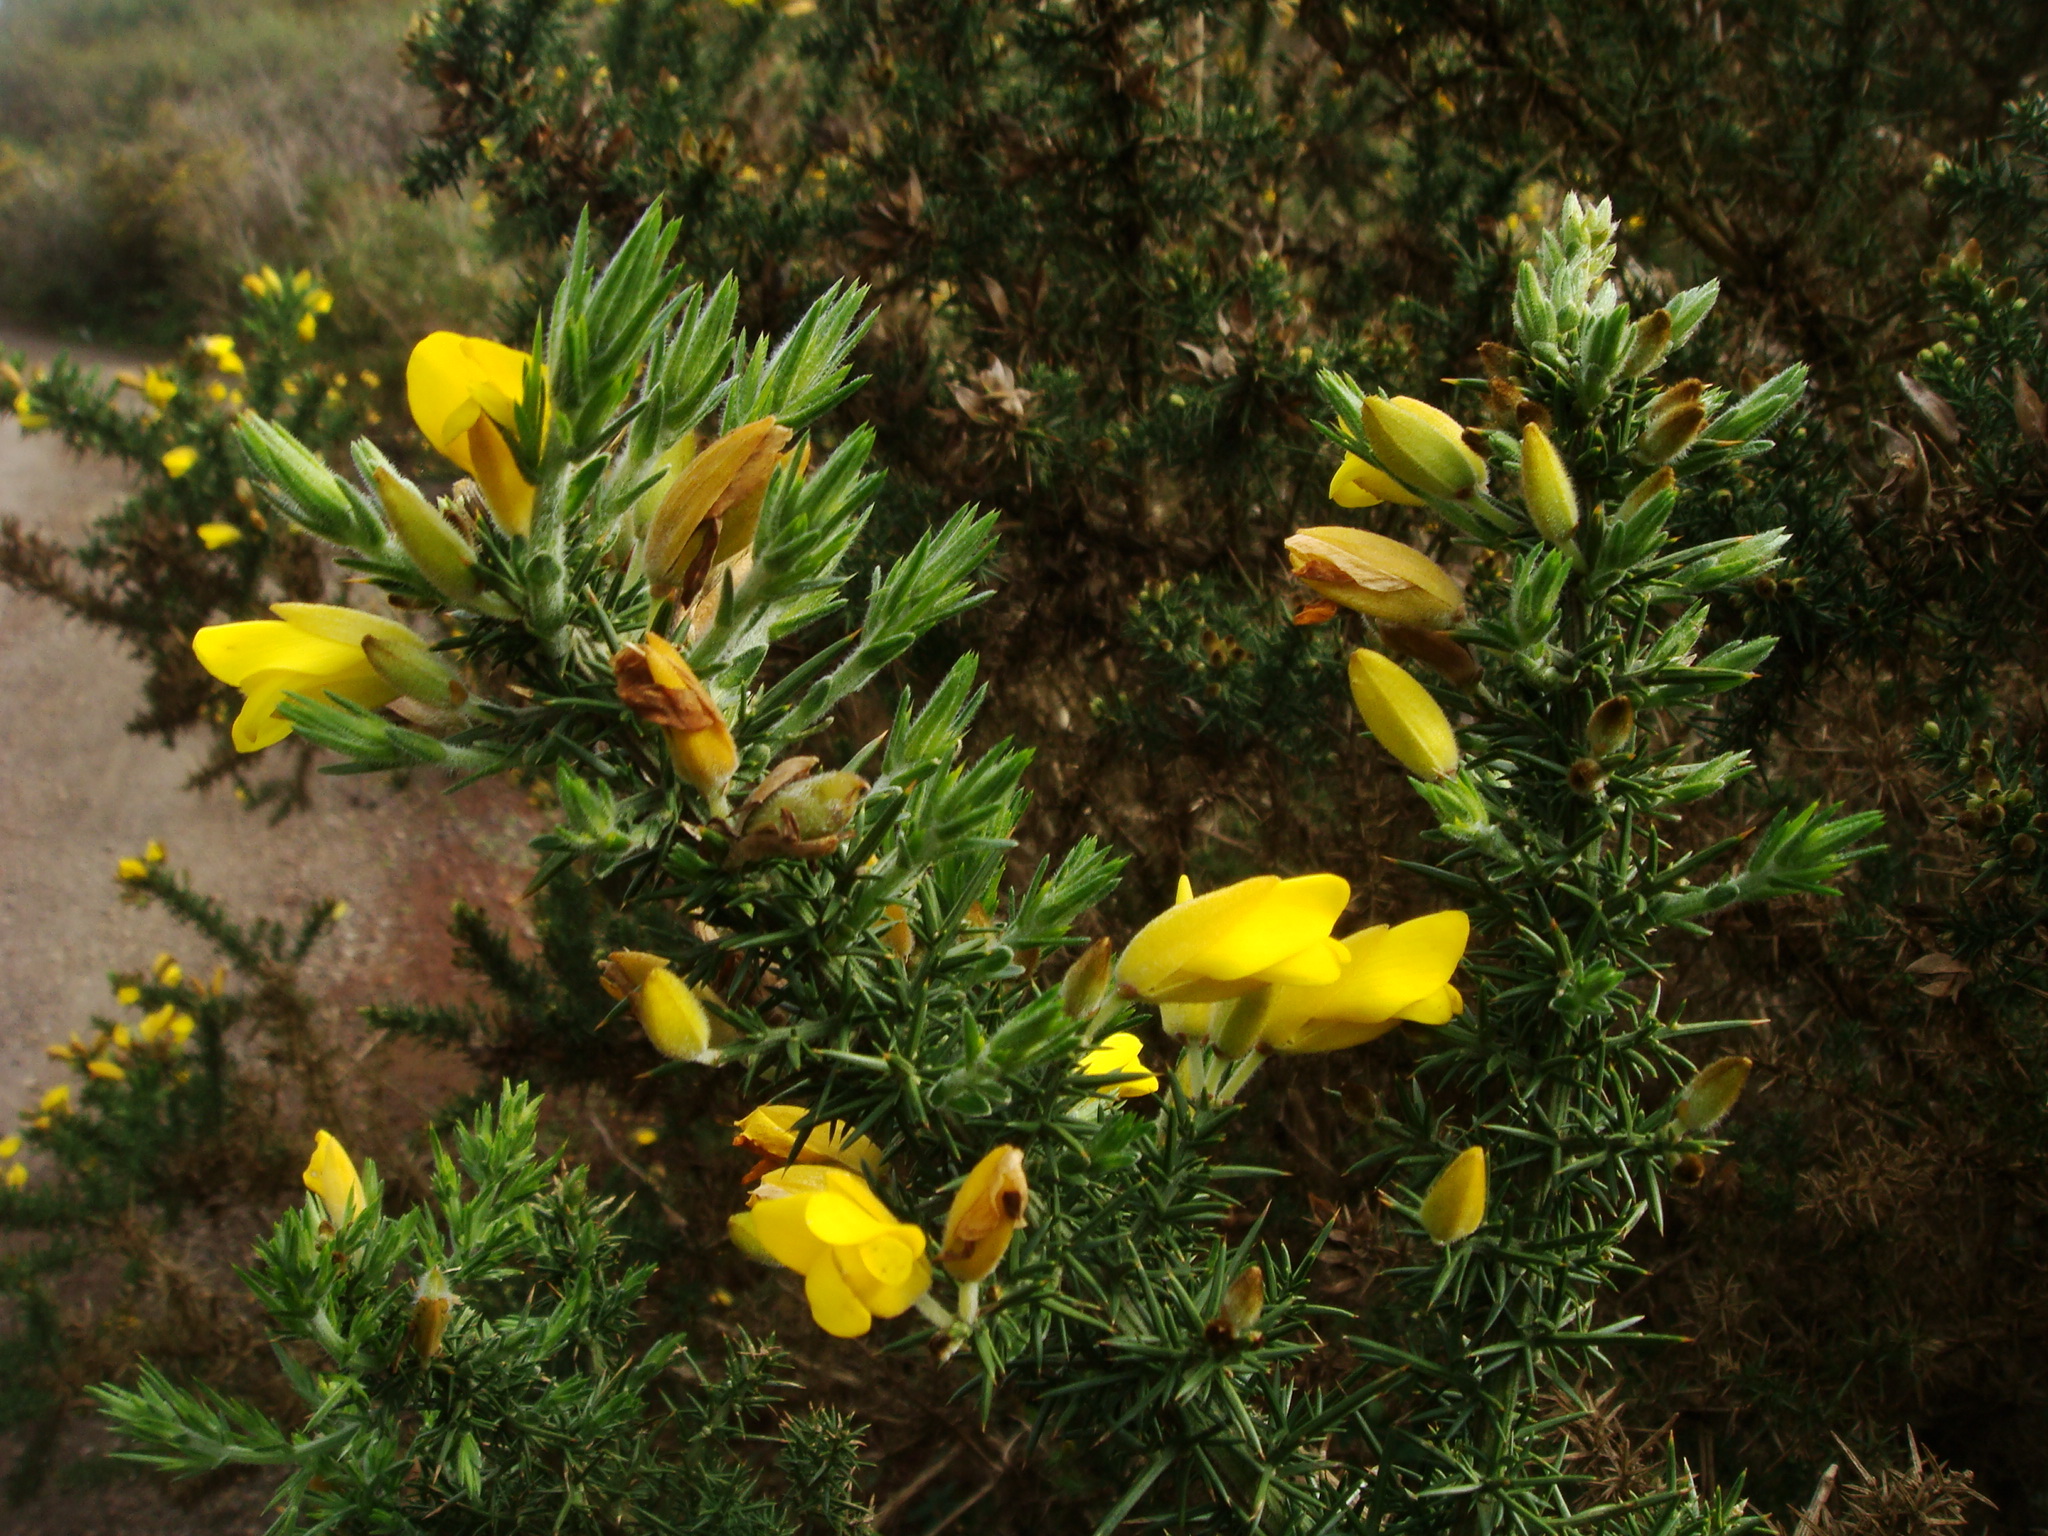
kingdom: Plantae
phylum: Tracheophyta
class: Magnoliopsida
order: Fabales
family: Fabaceae
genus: Ulex
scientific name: Ulex europaeus
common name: Common gorse
